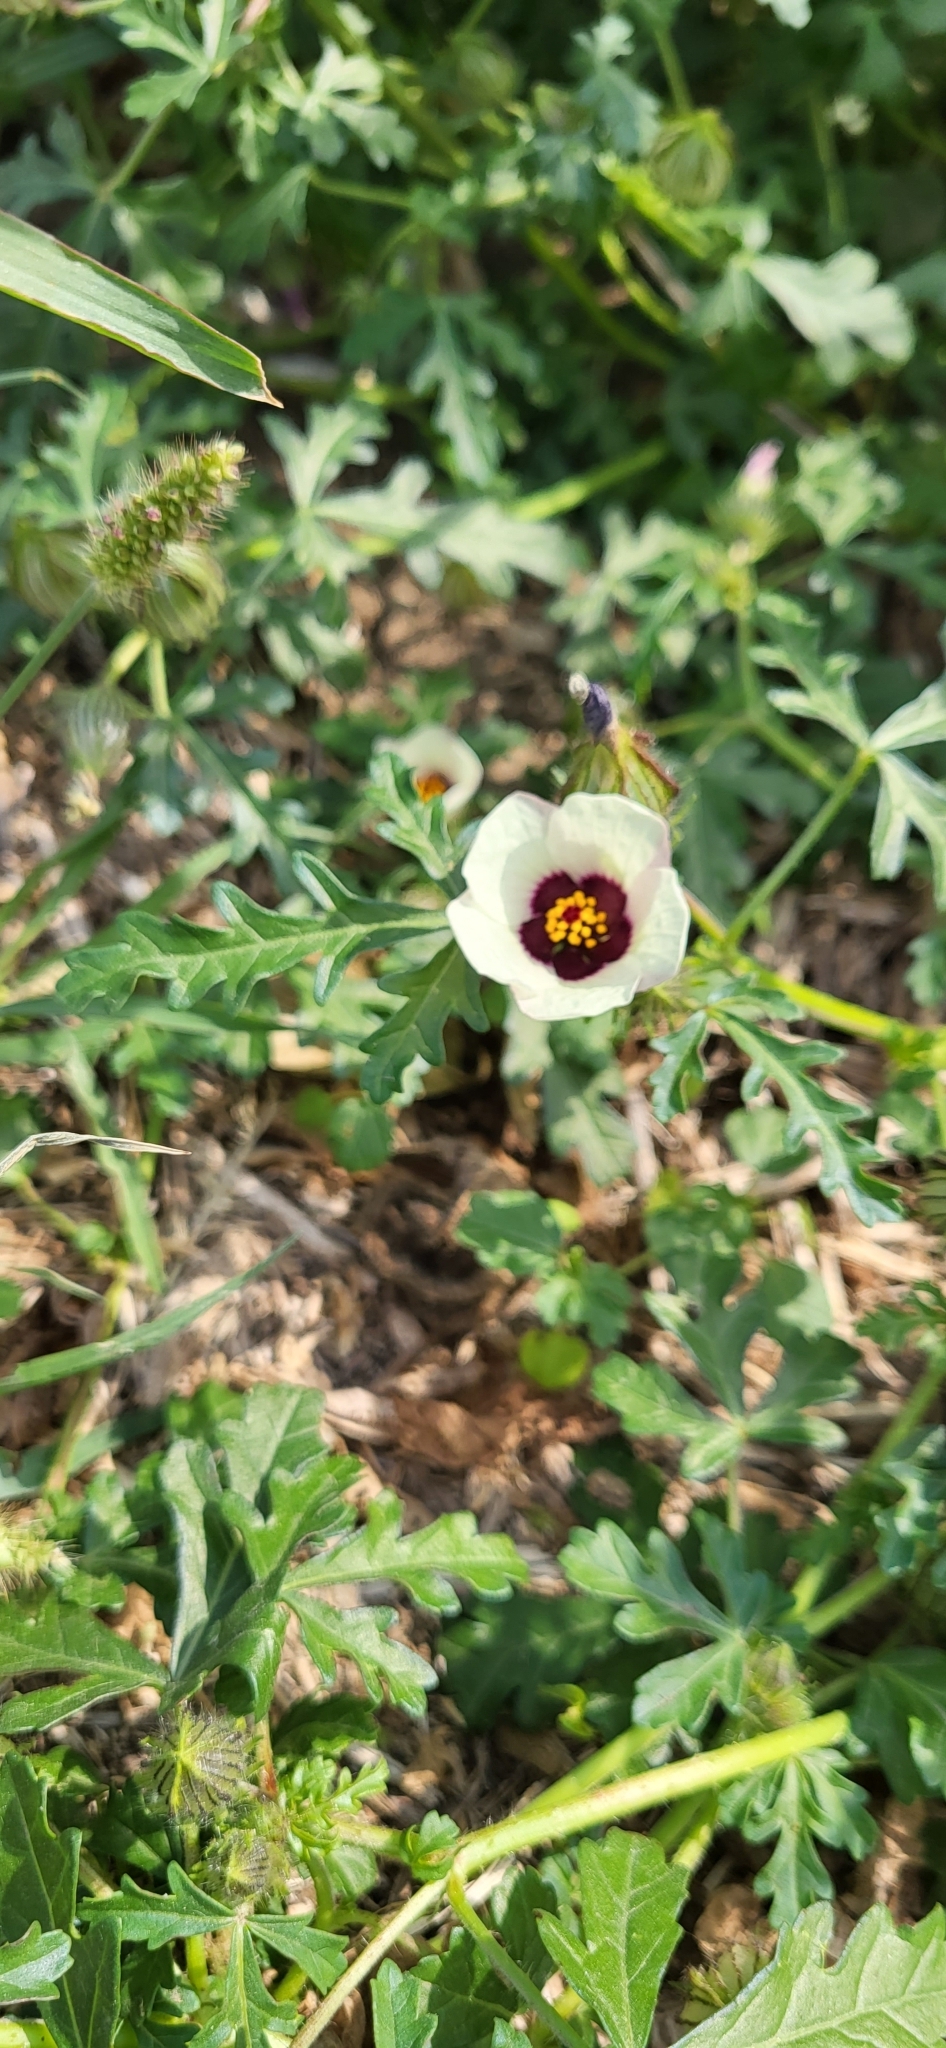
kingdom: Plantae
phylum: Tracheophyta
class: Magnoliopsida
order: Malvales
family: Malvaceae
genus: Hibiscus
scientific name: Hibiscus trionum
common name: Bladder ketmia
